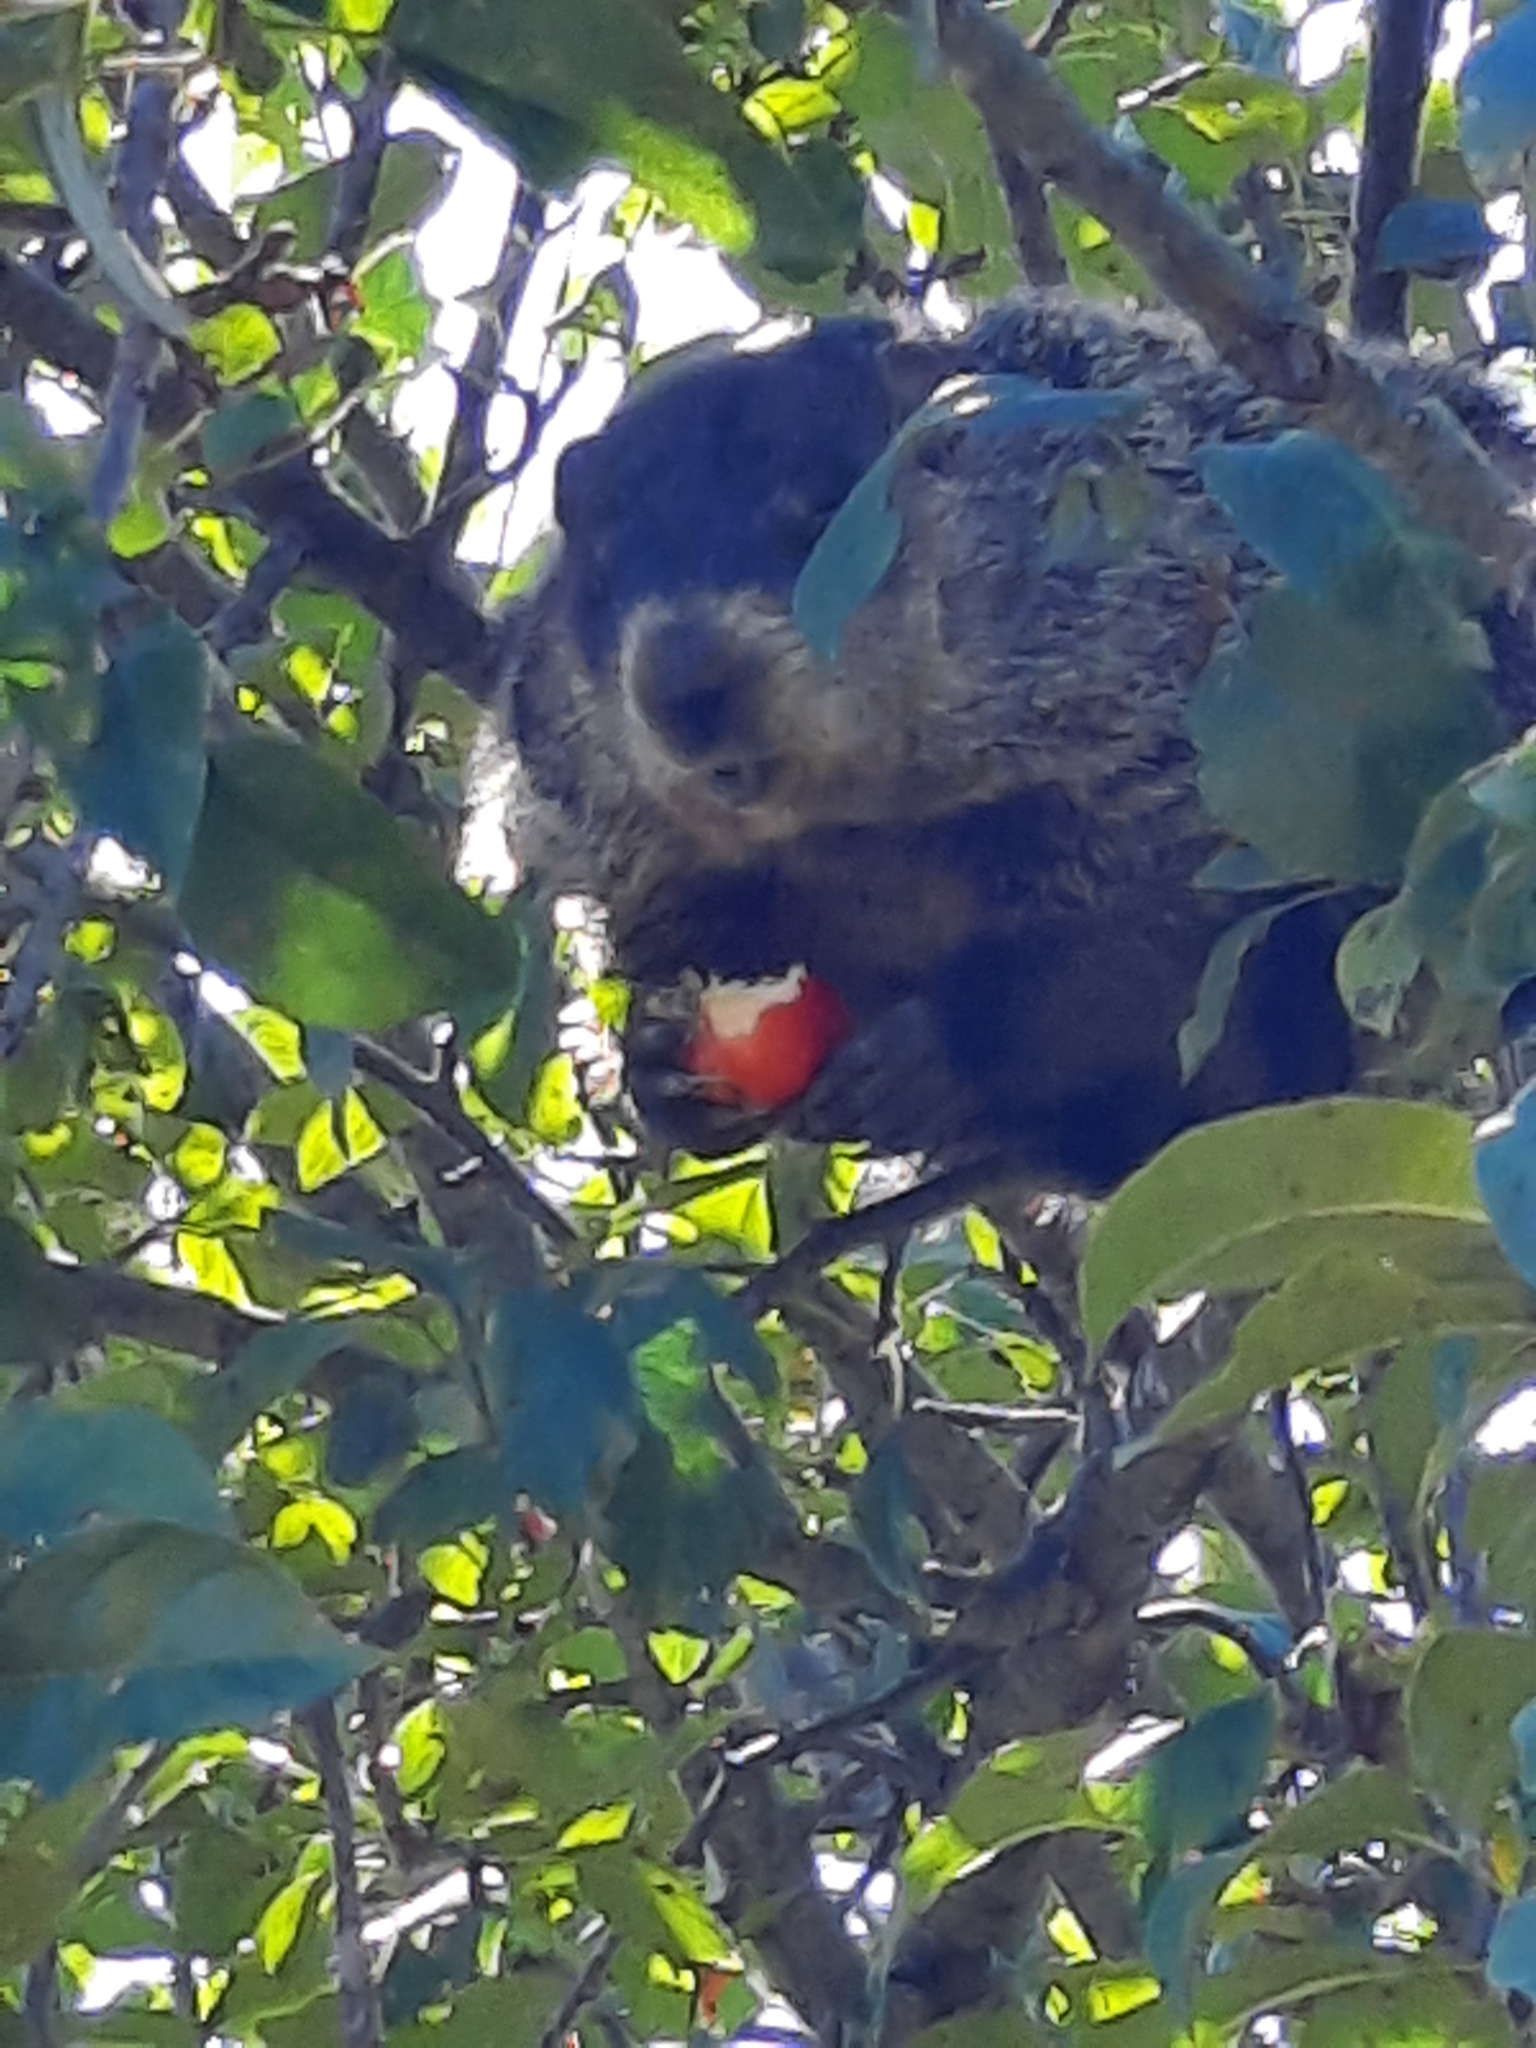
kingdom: Animalia
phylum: Chordata
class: Mammalia
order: Rodentia
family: Sciuridae
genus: Marmota
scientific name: Marmota monax
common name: Groundhog
